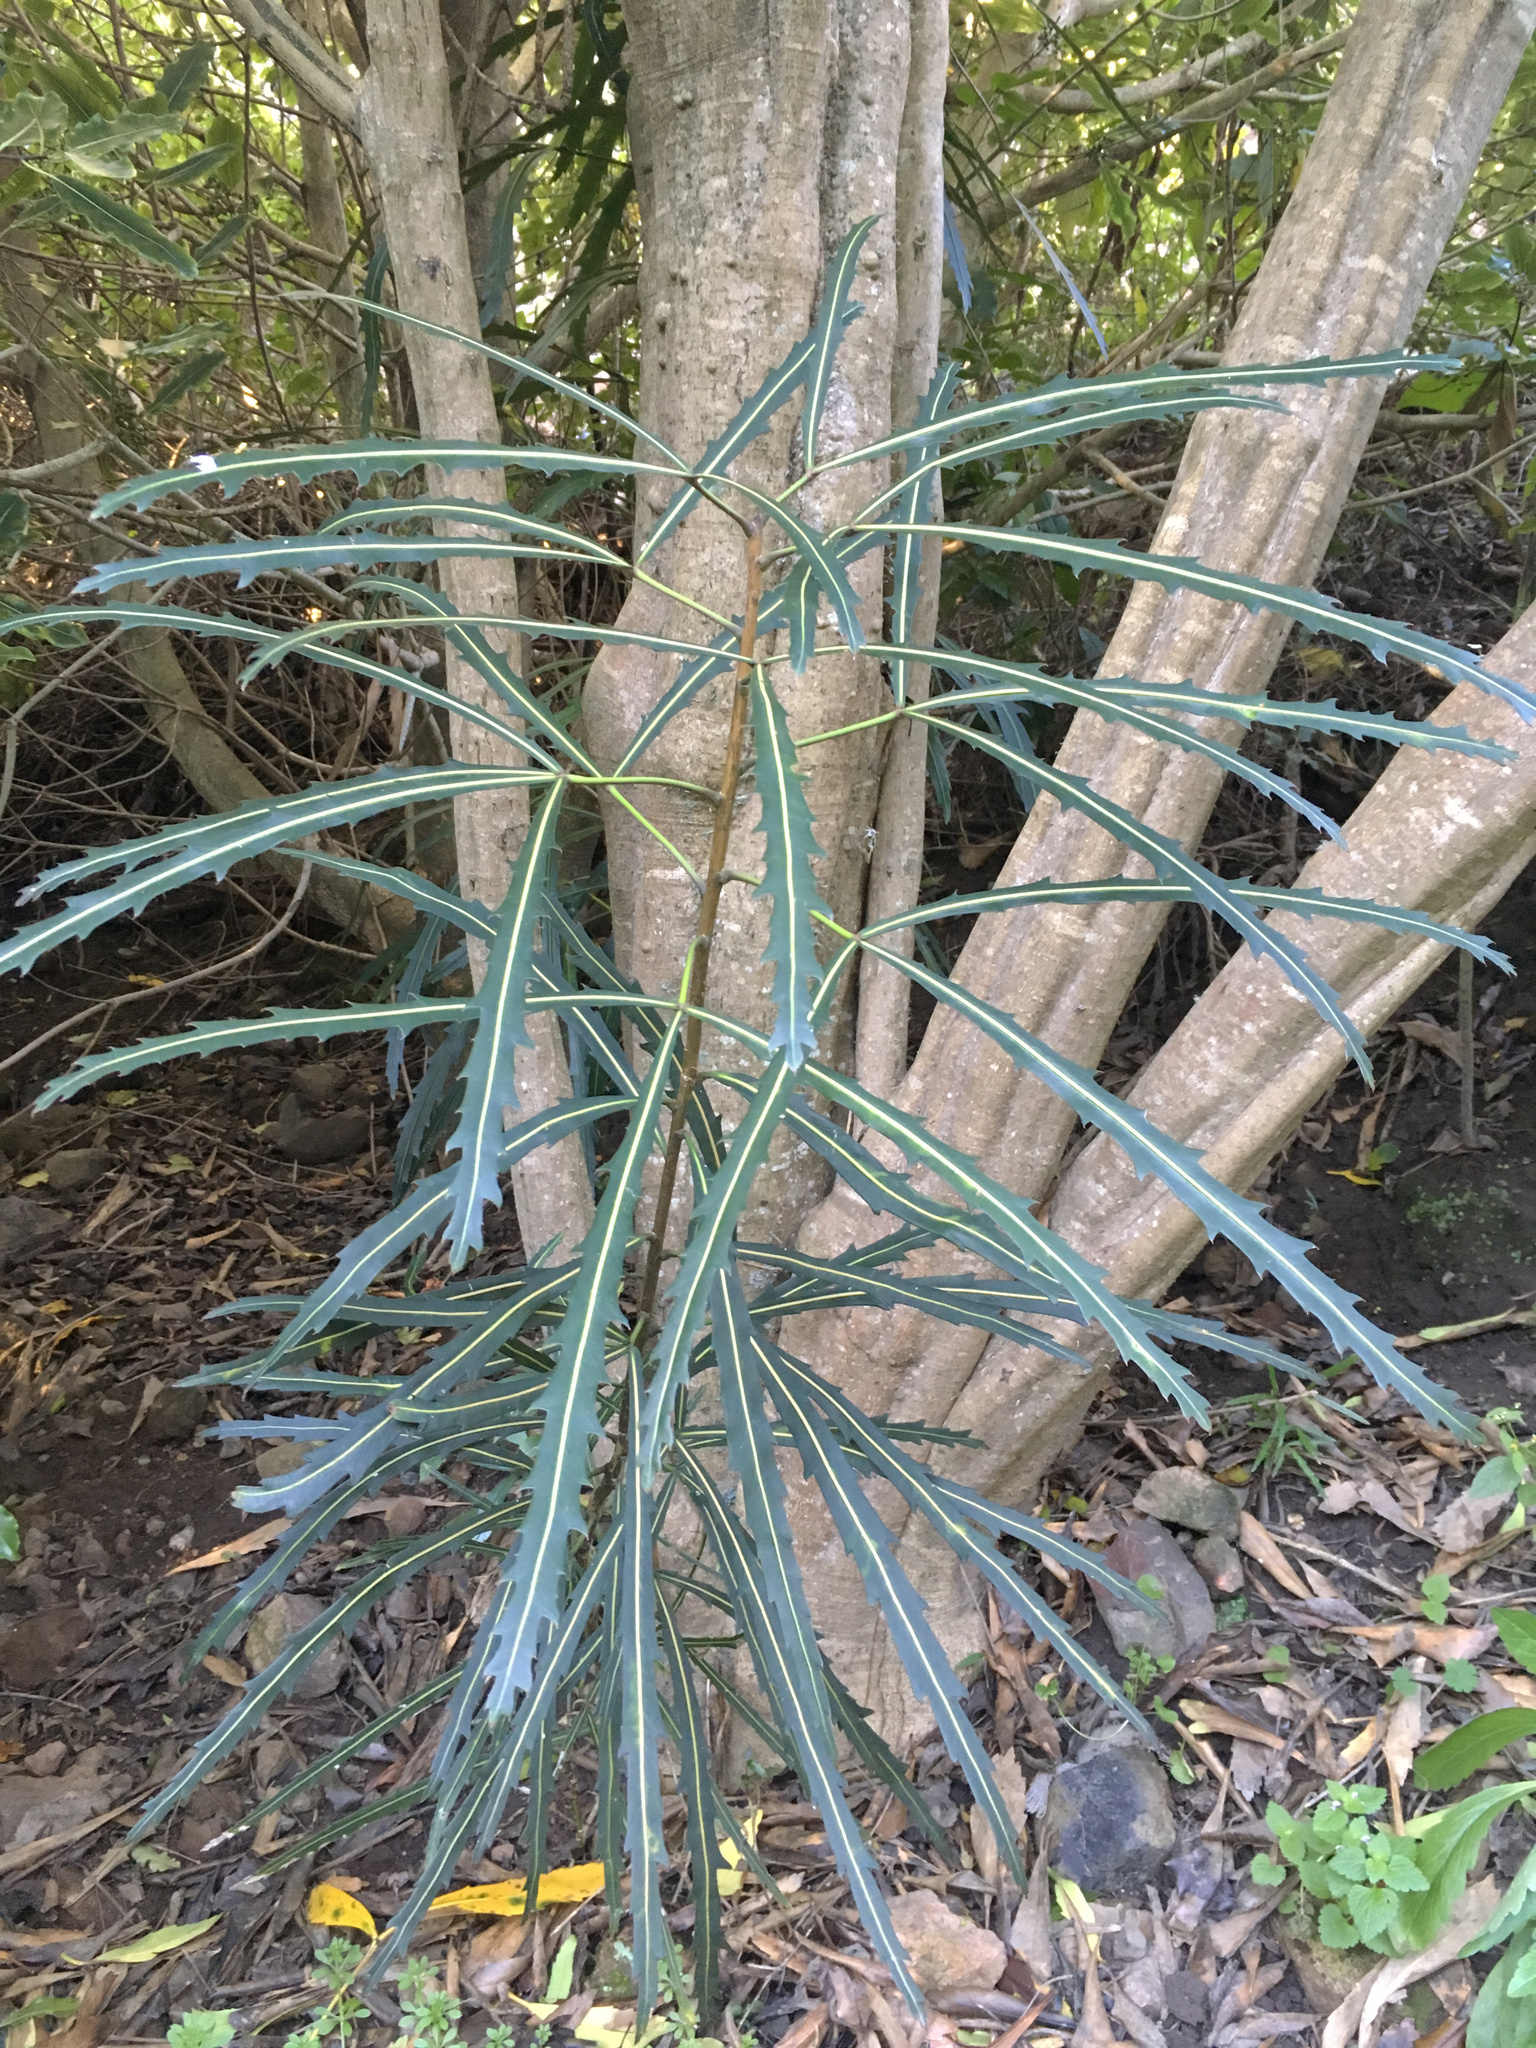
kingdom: Plantae
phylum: Tracheophyta
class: Magnoliopsida
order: Apiales
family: Araliaceae
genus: Pseudopanax
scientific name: Pseudopanax
